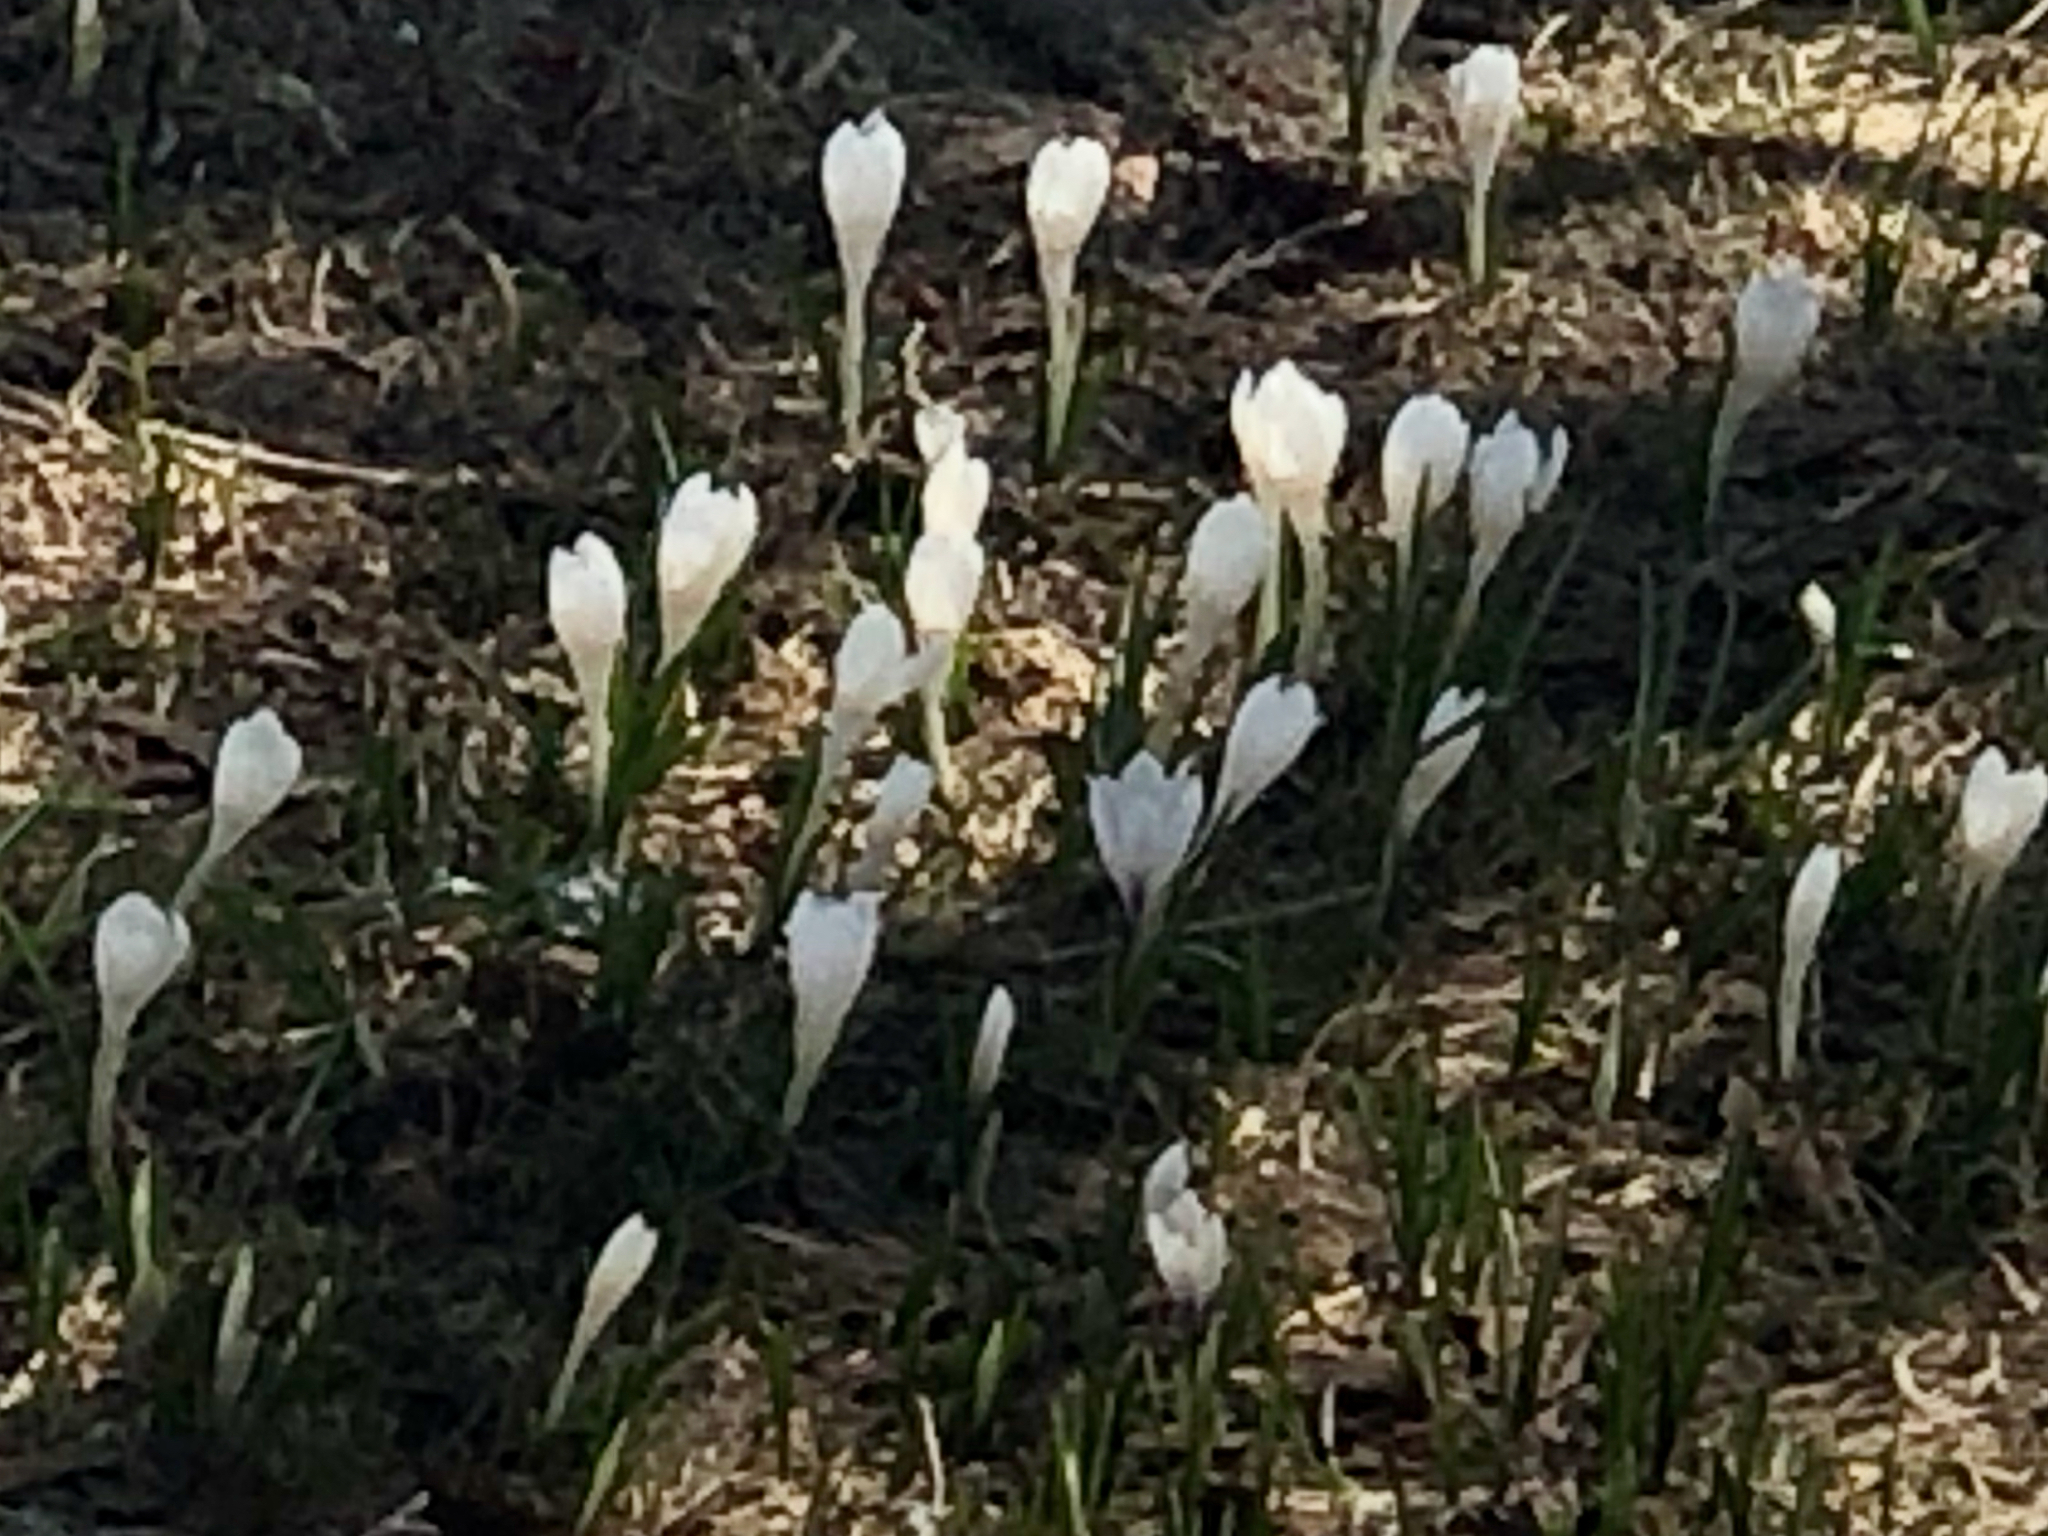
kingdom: Plantae
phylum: Tracheophyta
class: Liliopsida
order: Asparagales
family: Iridaceae
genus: Crocus
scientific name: Crocus vernus
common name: Spring crocus
